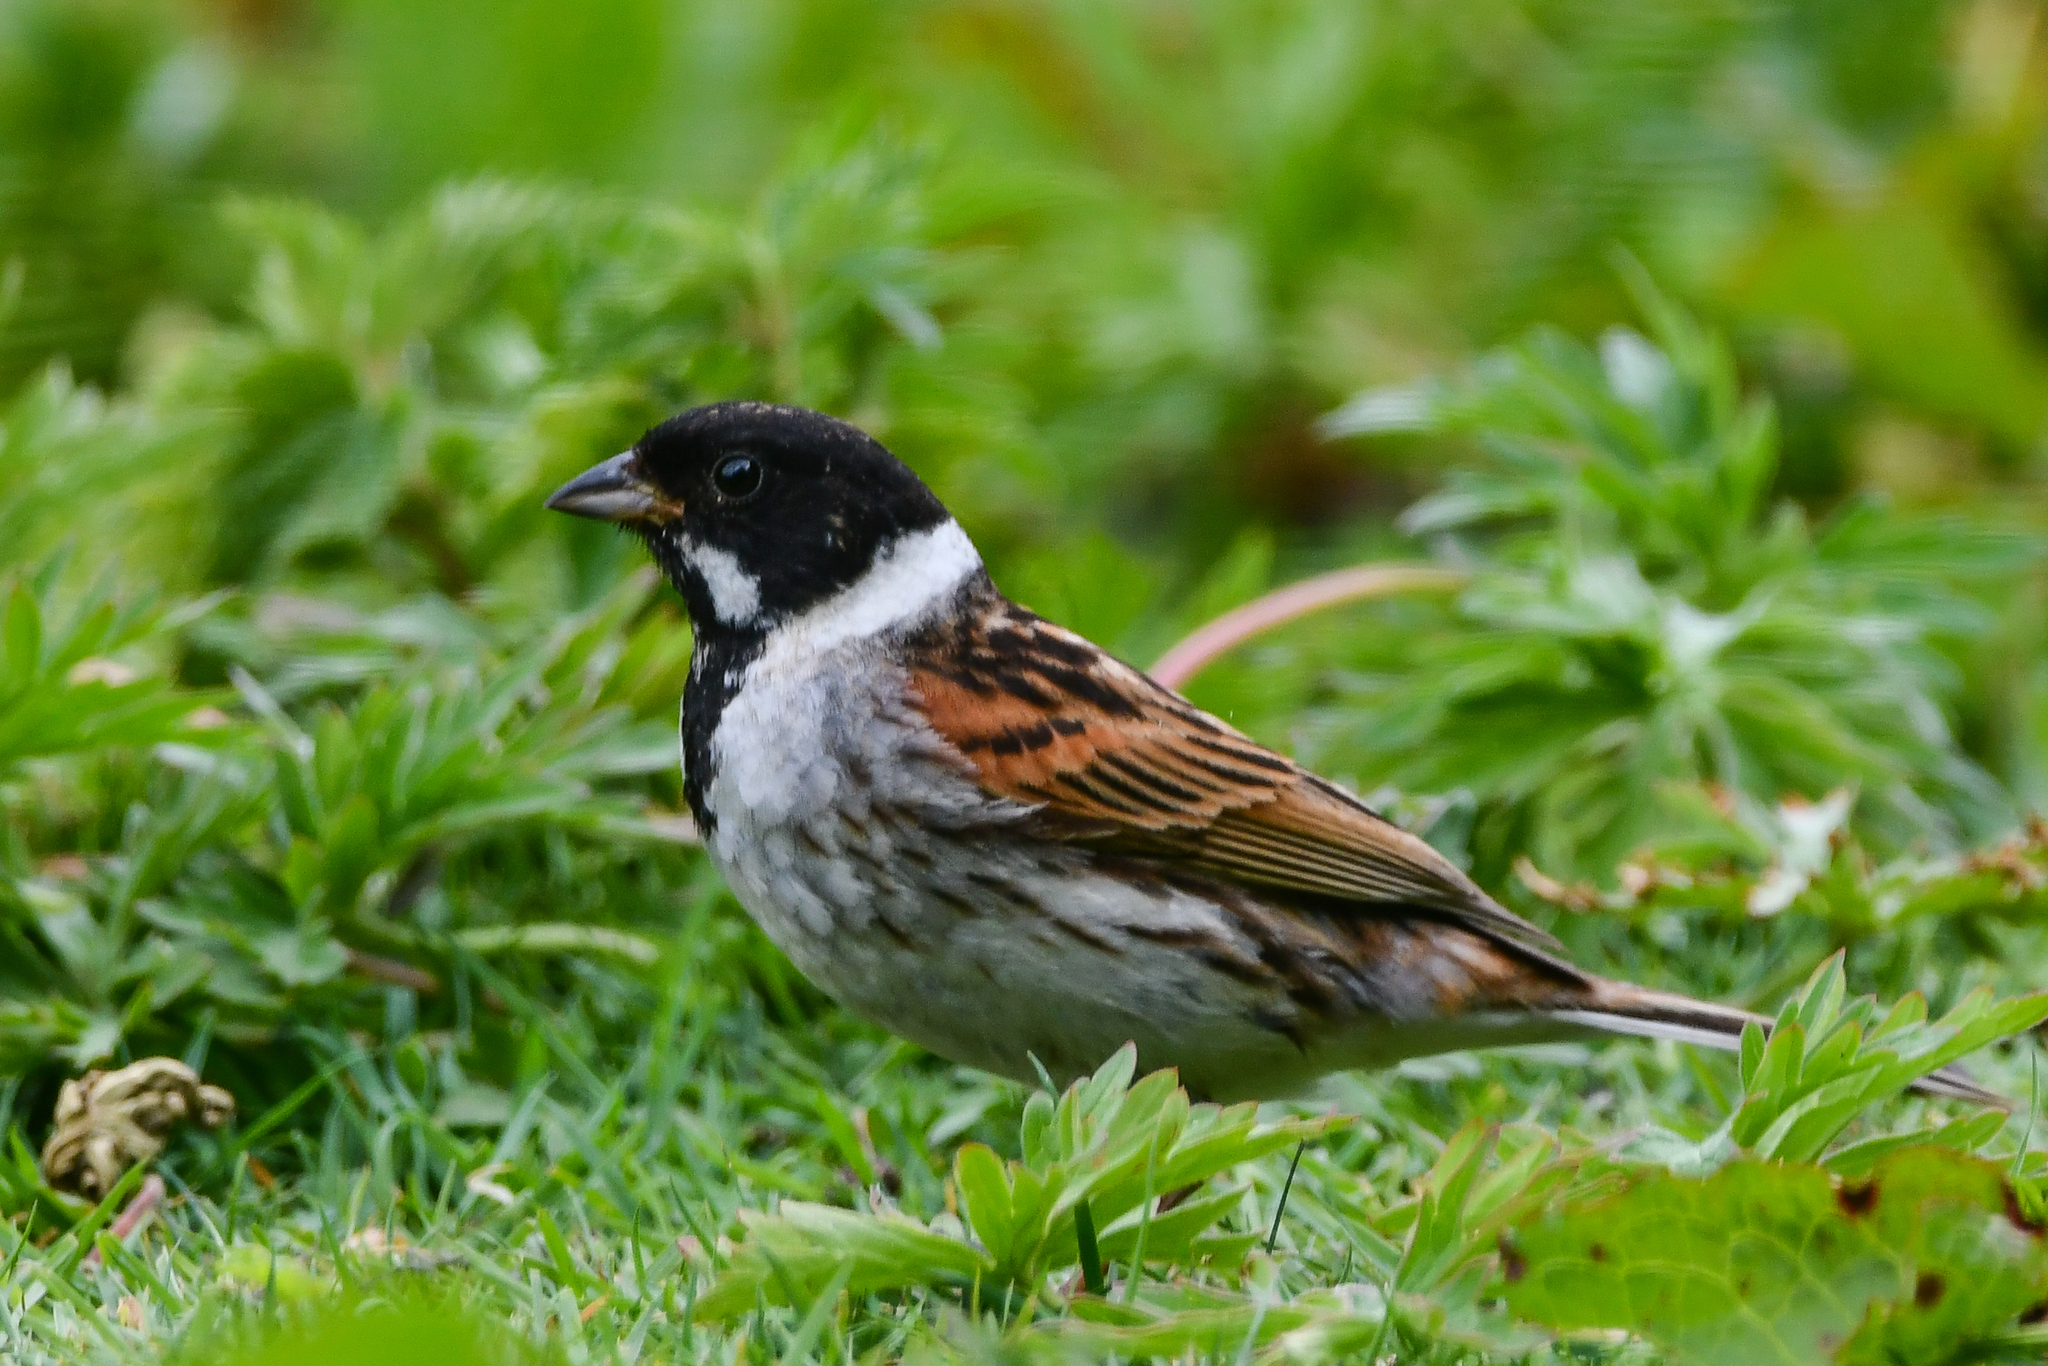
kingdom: Animalia
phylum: Chordata
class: Aves
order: Passeriformes
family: Emberizidae
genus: Emberiza
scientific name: Emberiza schoeniclus
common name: Reed bunting
